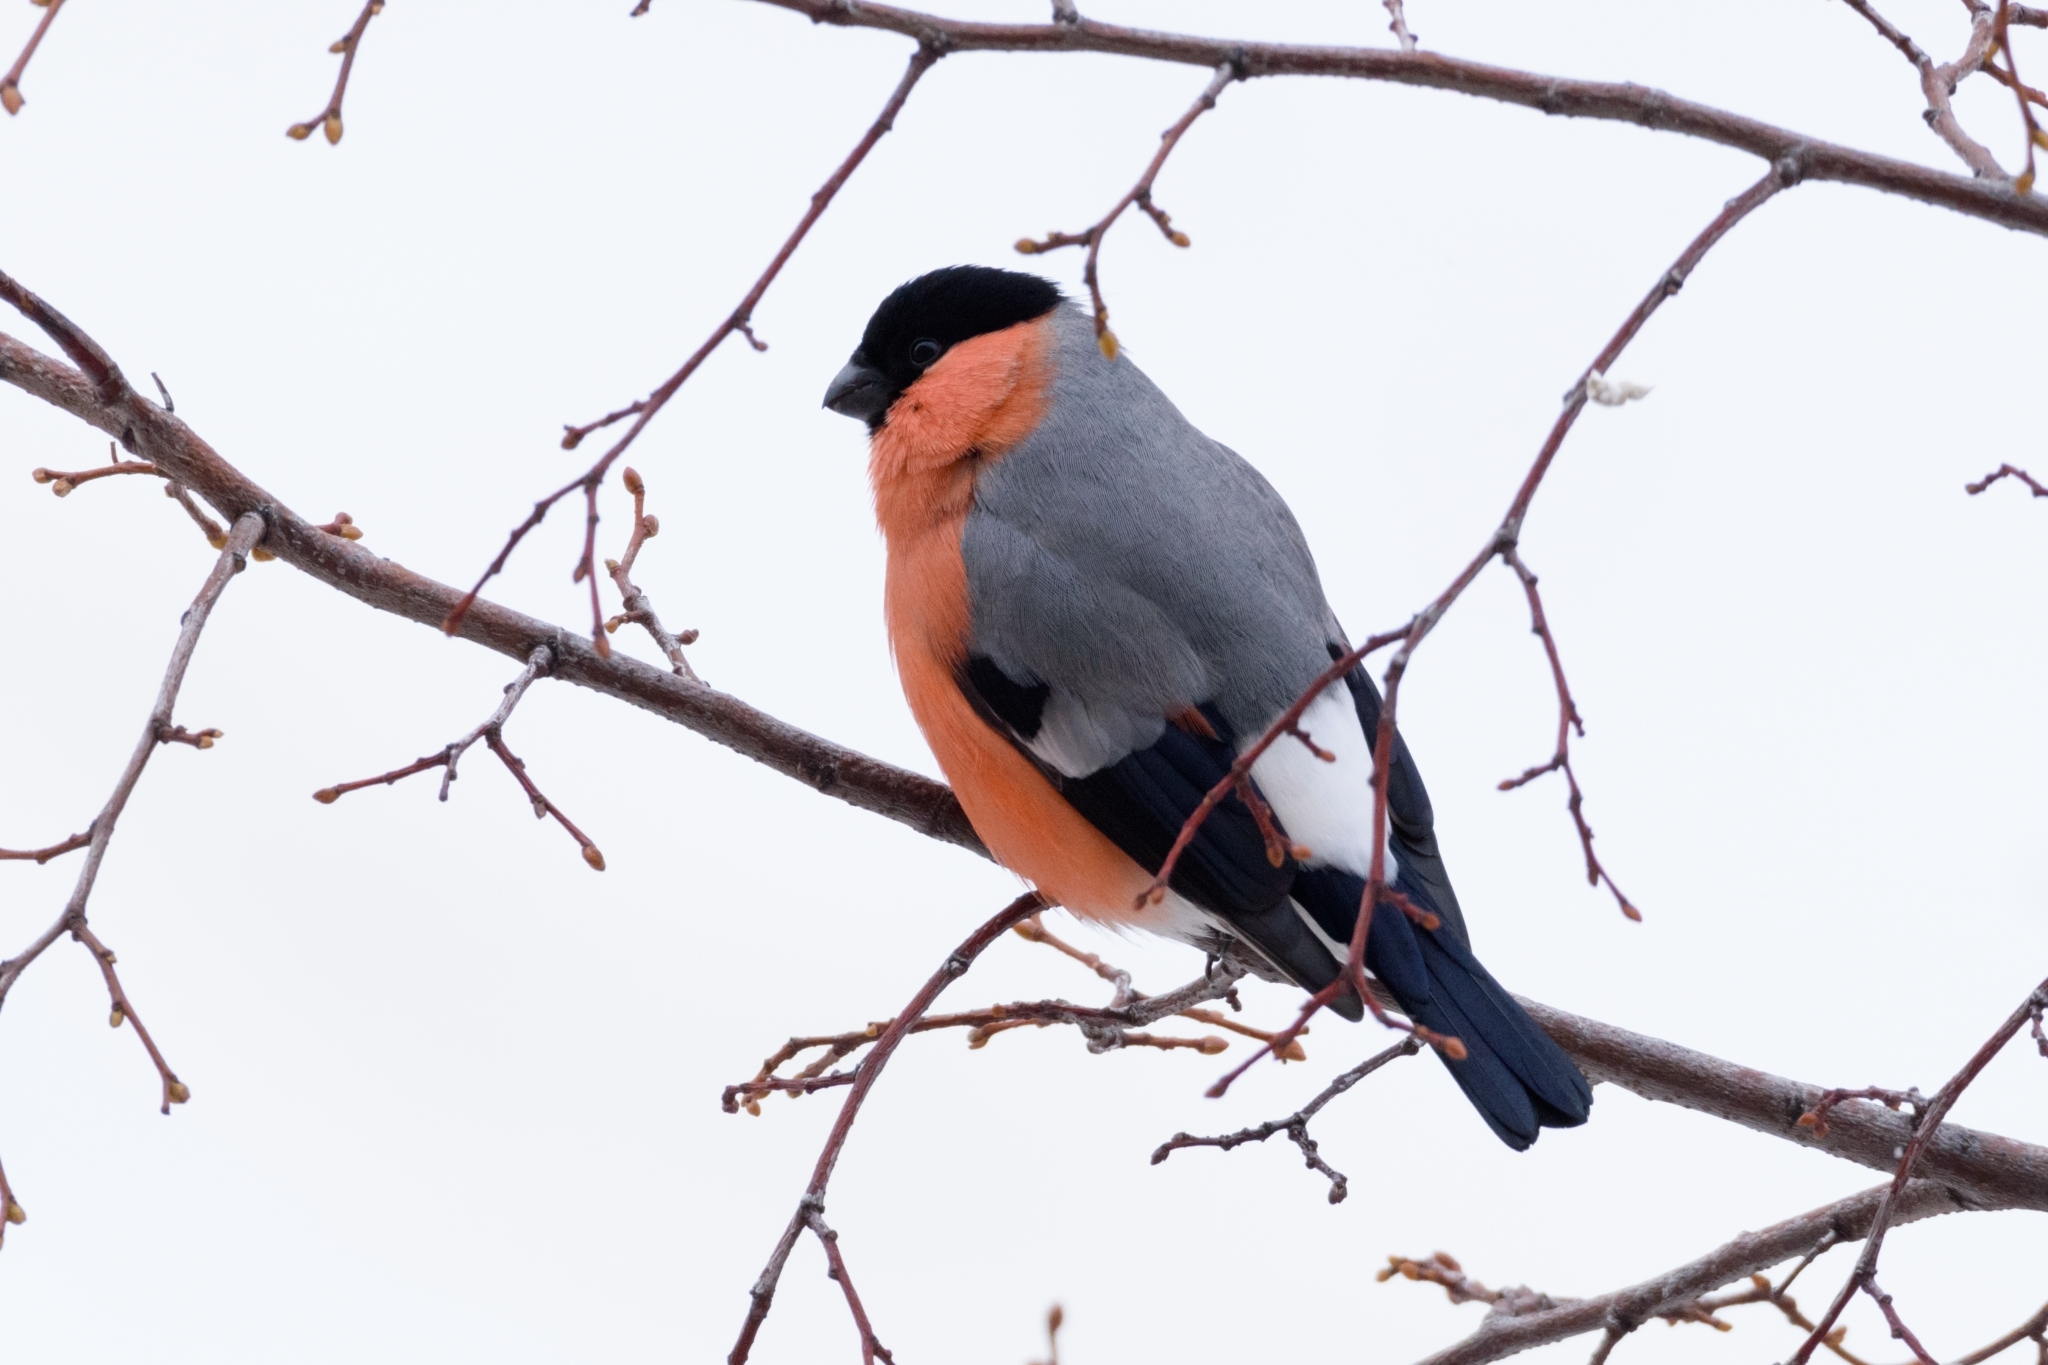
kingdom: Animalia
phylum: Chordata
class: Aves
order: Passeriformes
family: Fringillidae
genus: Pyrrhula
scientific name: Pyrrhula pyrrhula
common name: Eurasian bullfinch
